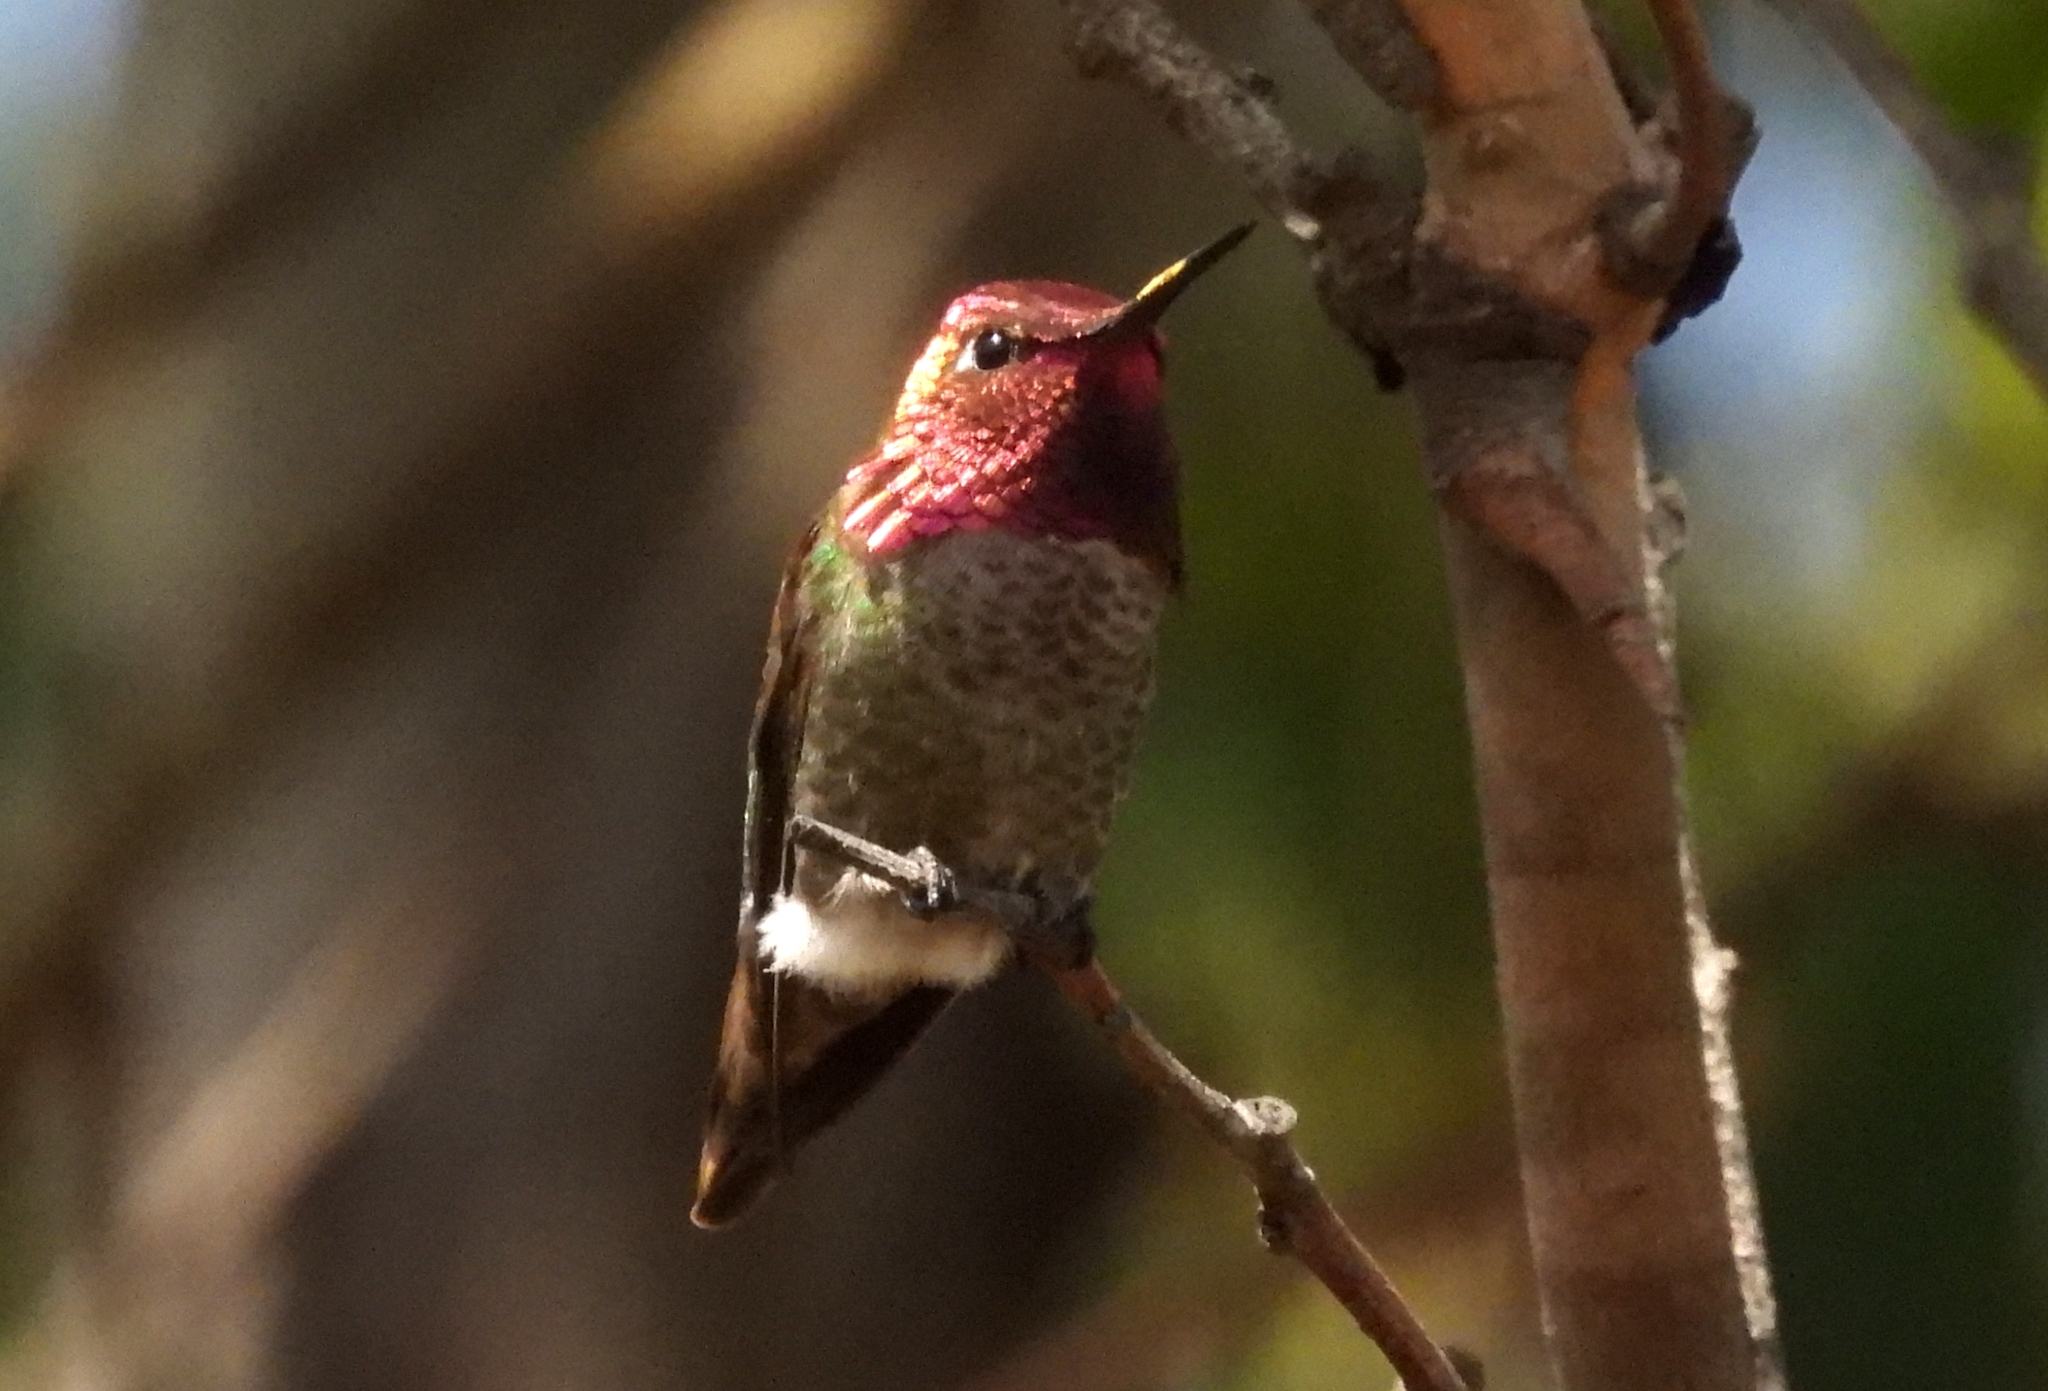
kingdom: Animalia
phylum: Chordata
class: Aves
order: Apodiformes
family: Trochilidae
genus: Calypte
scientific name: Calypte anna
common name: Anna's hummingbird
